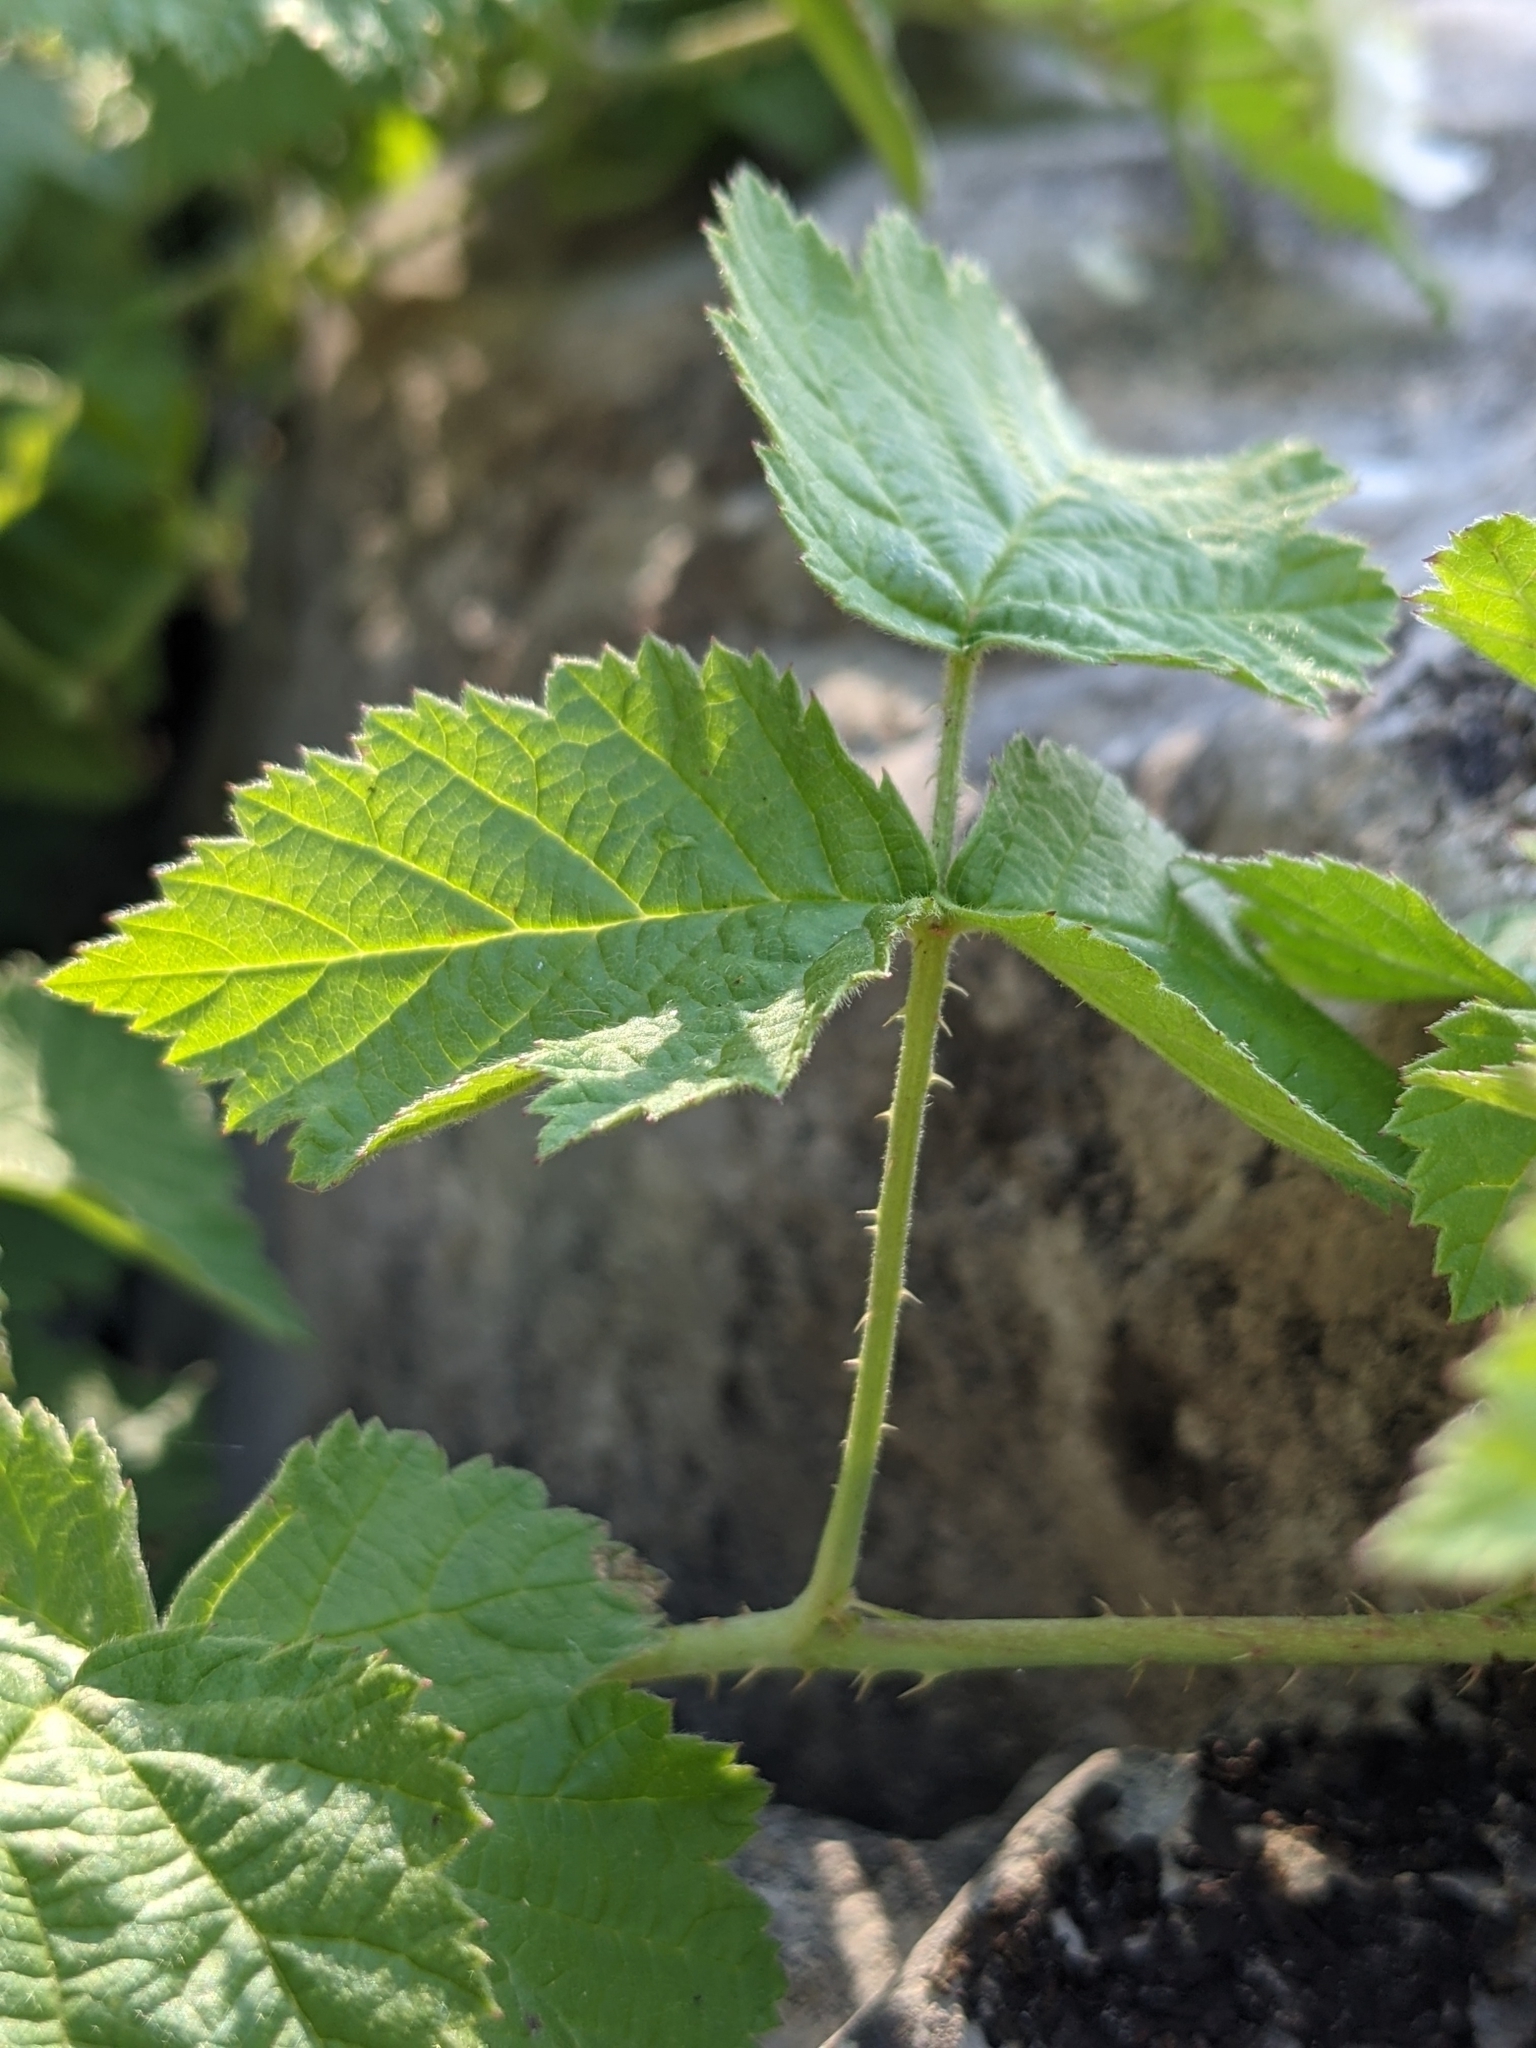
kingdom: Plantae
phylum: Tracheophyta
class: Magnoliopsida
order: Rosales
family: Rosaceae
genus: Rubus
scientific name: Rubus caesius
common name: Dewberry
